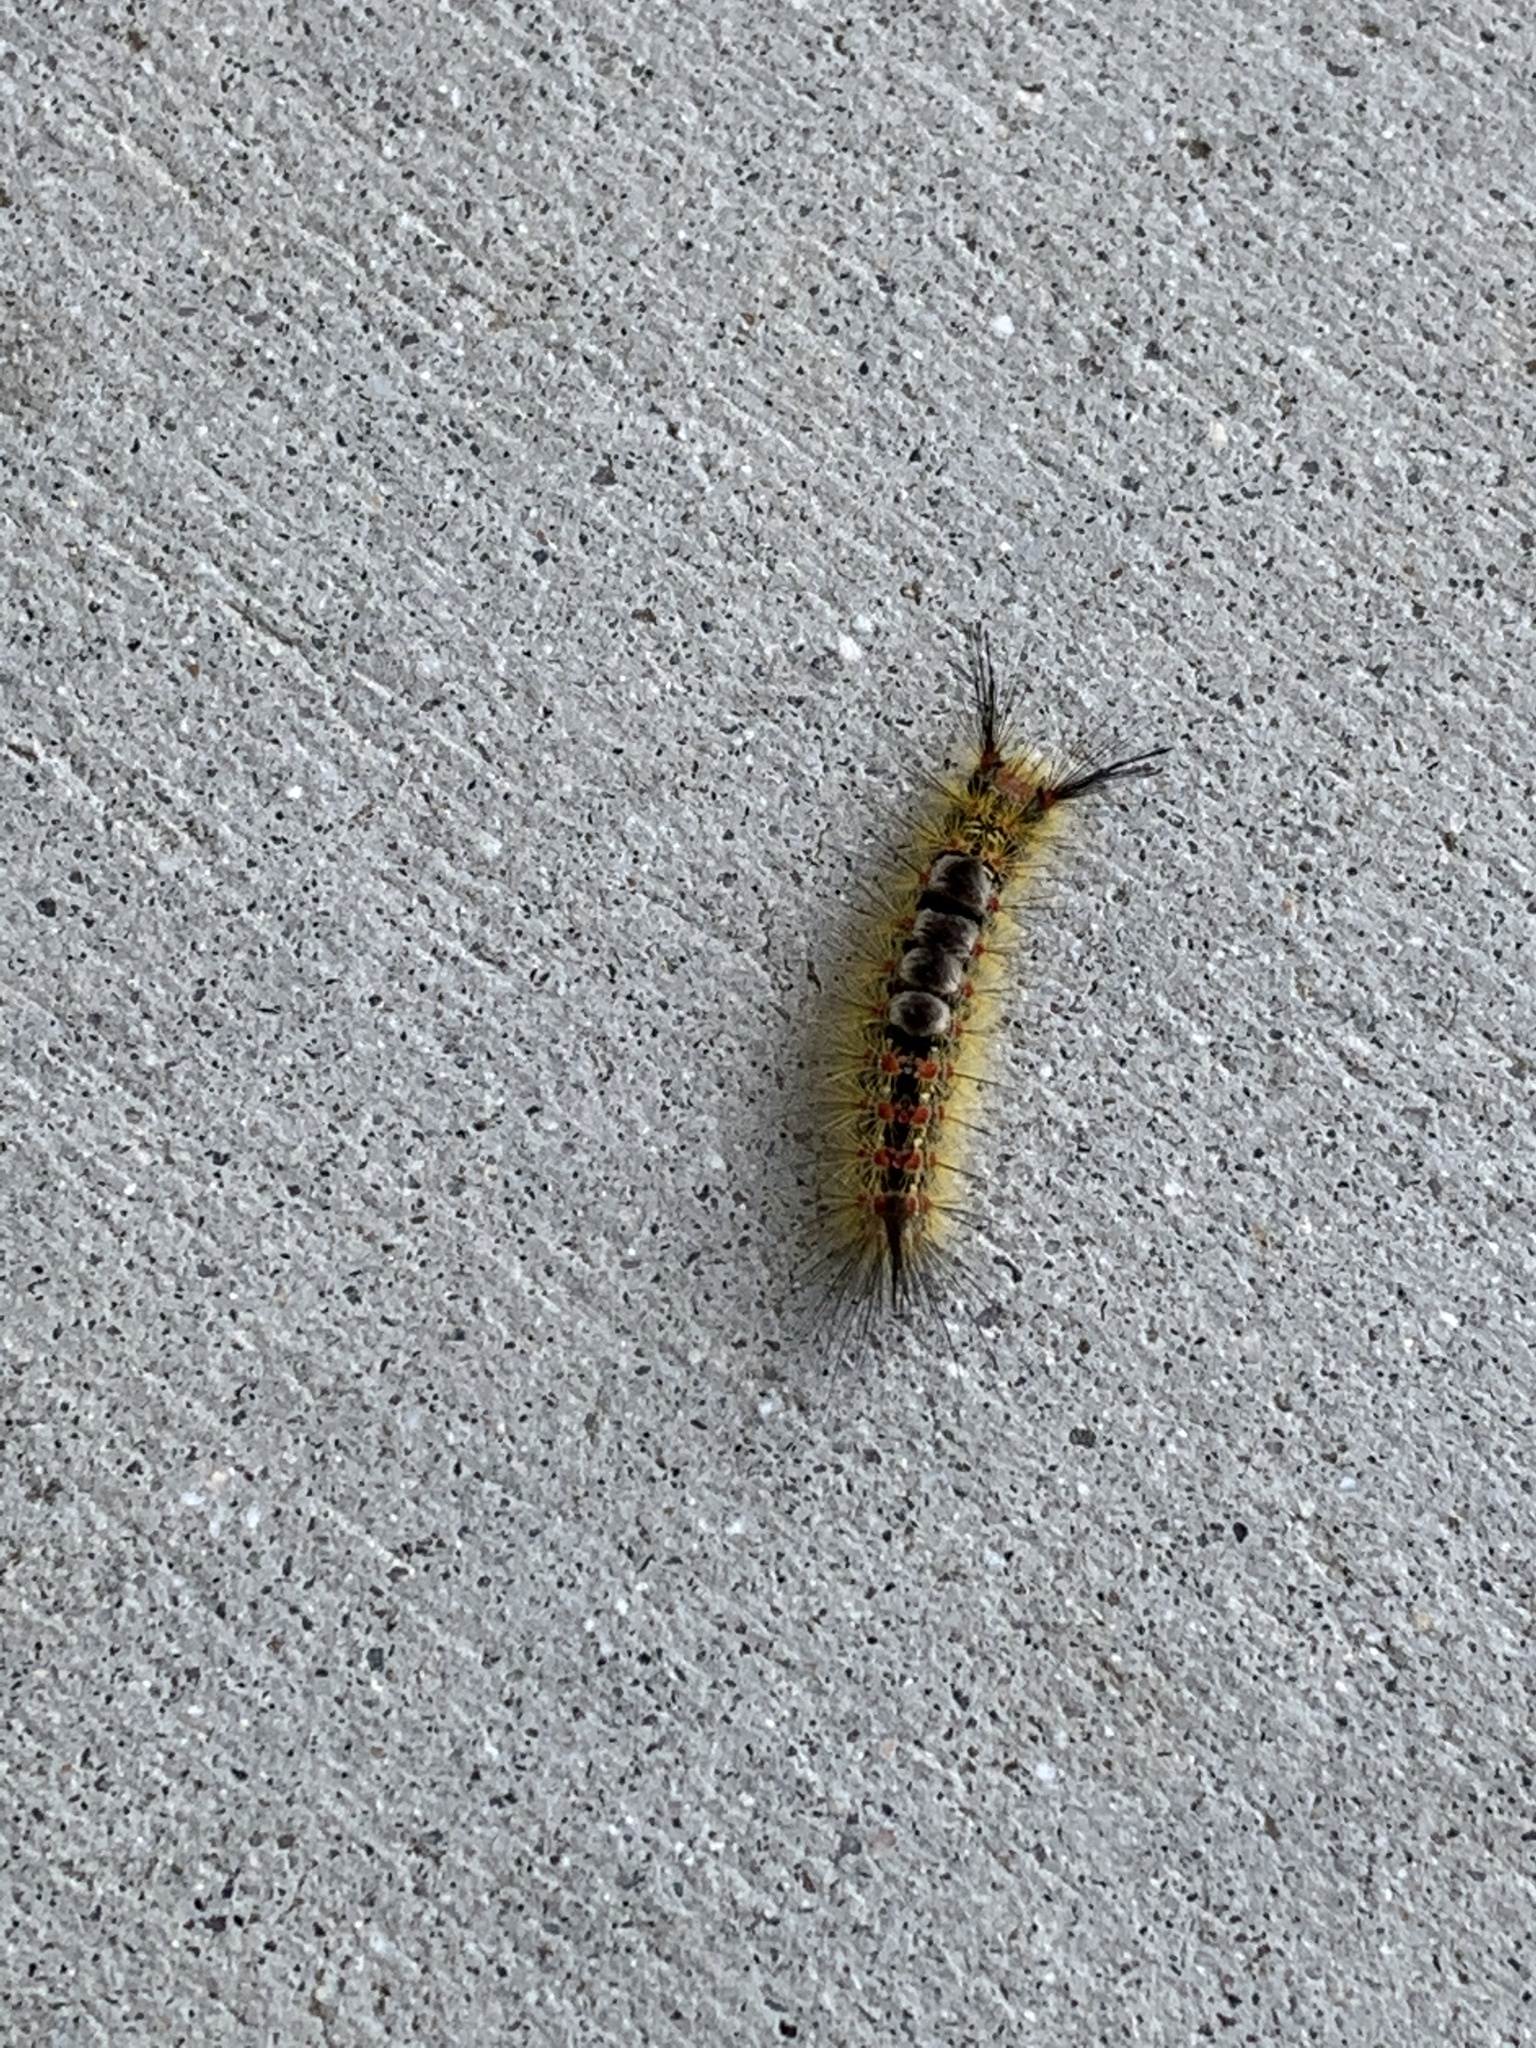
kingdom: Animalia
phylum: Arthropoda
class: Insecta
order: Lepidoptera
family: Erebidae
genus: Orgyia
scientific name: Orgyia vetusta
